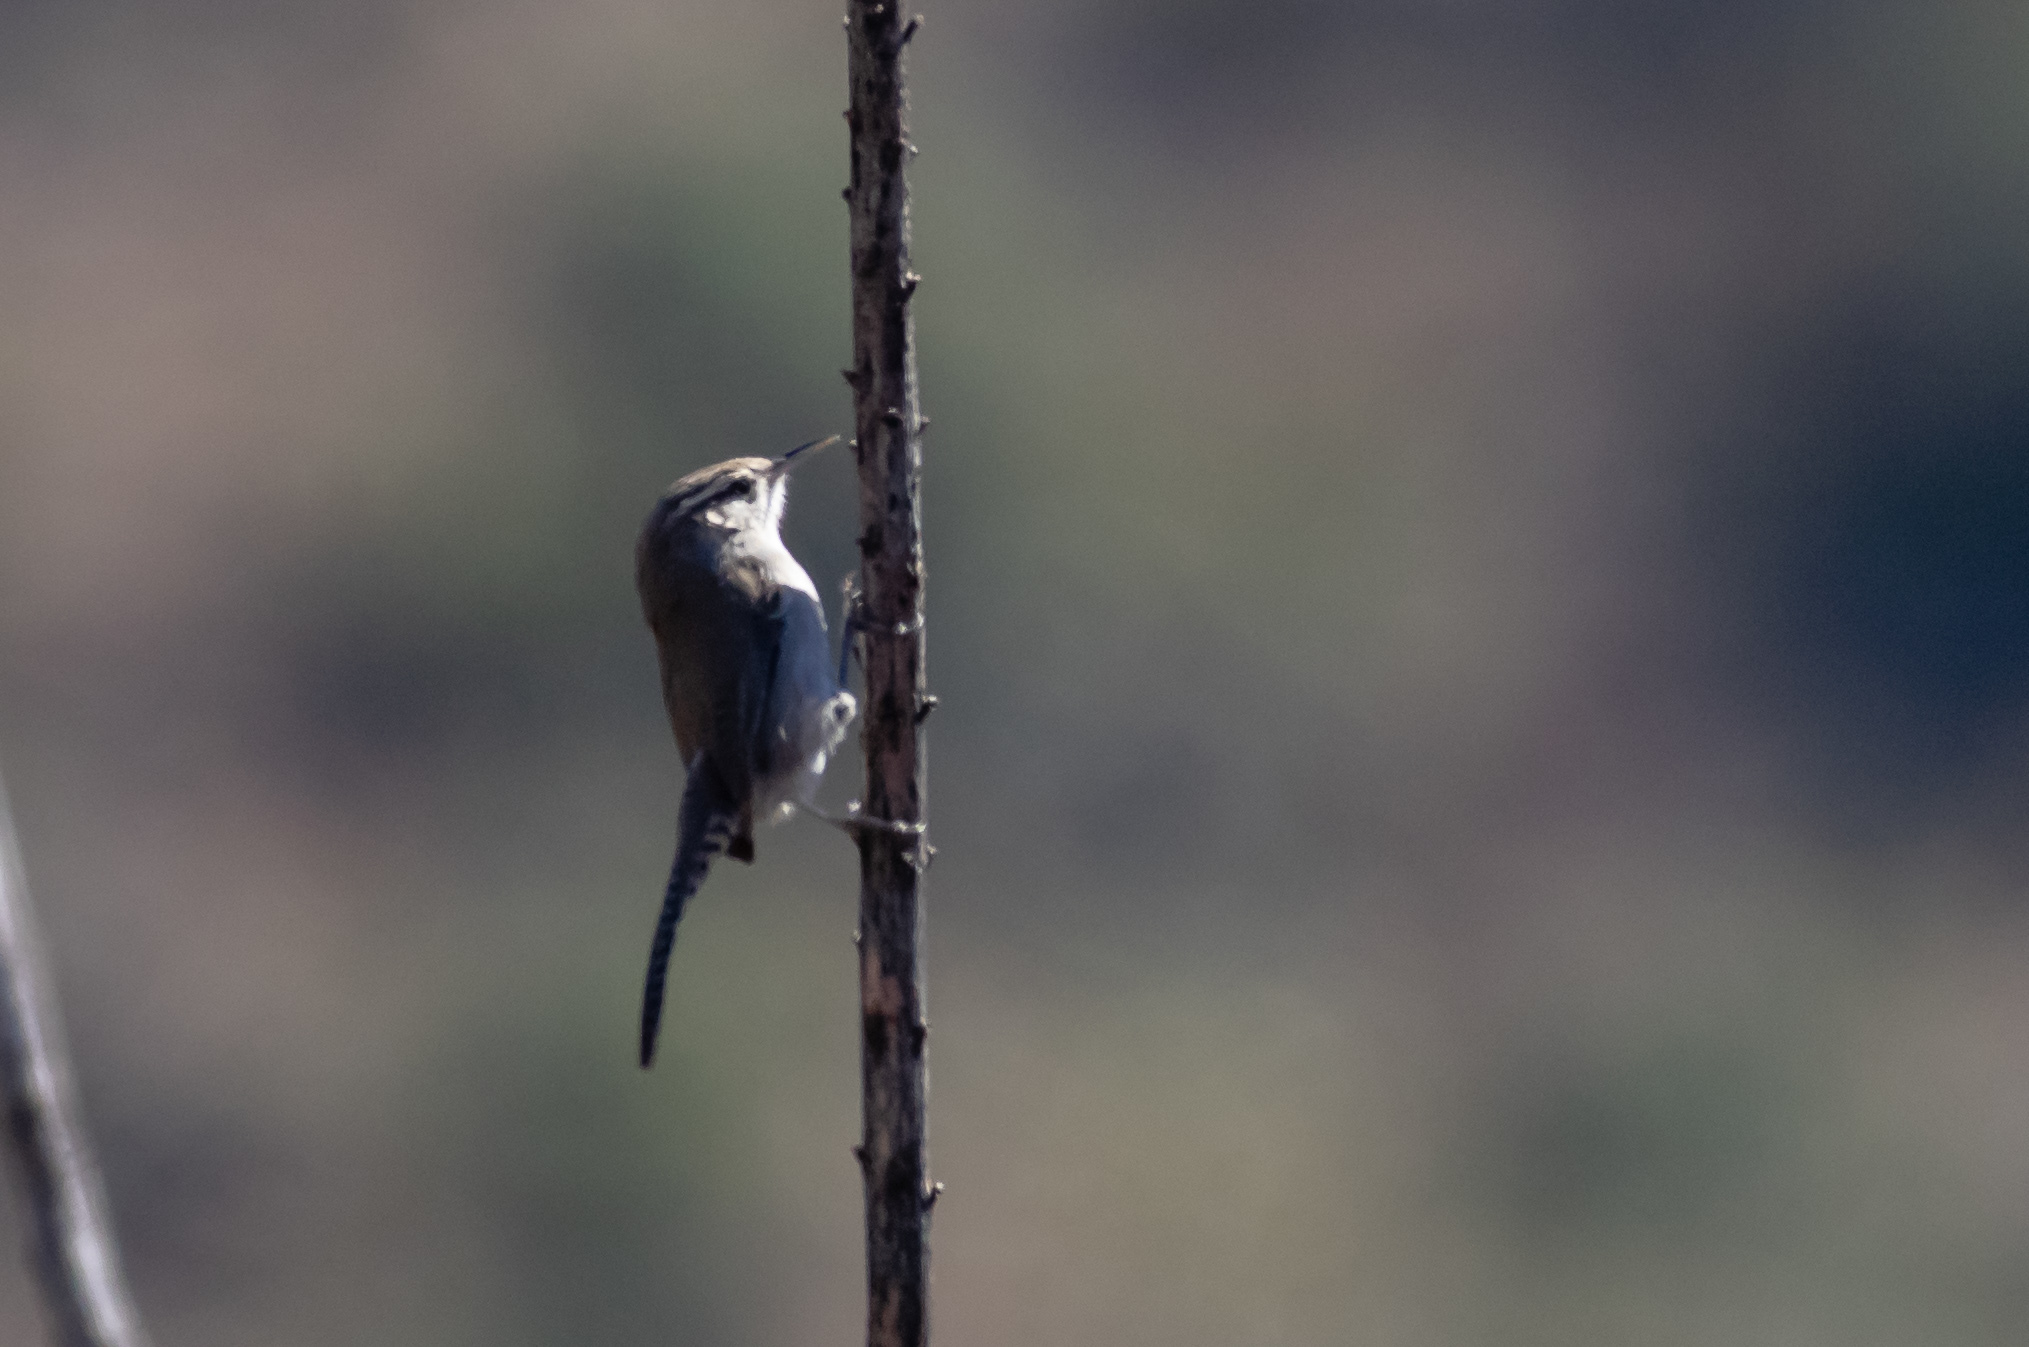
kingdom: Animalia
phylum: Chordata
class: Aves
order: Passeriformes
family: Troglodytidae
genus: Thryomanes
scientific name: Thryomanes bewickii
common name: Bewick's wren
